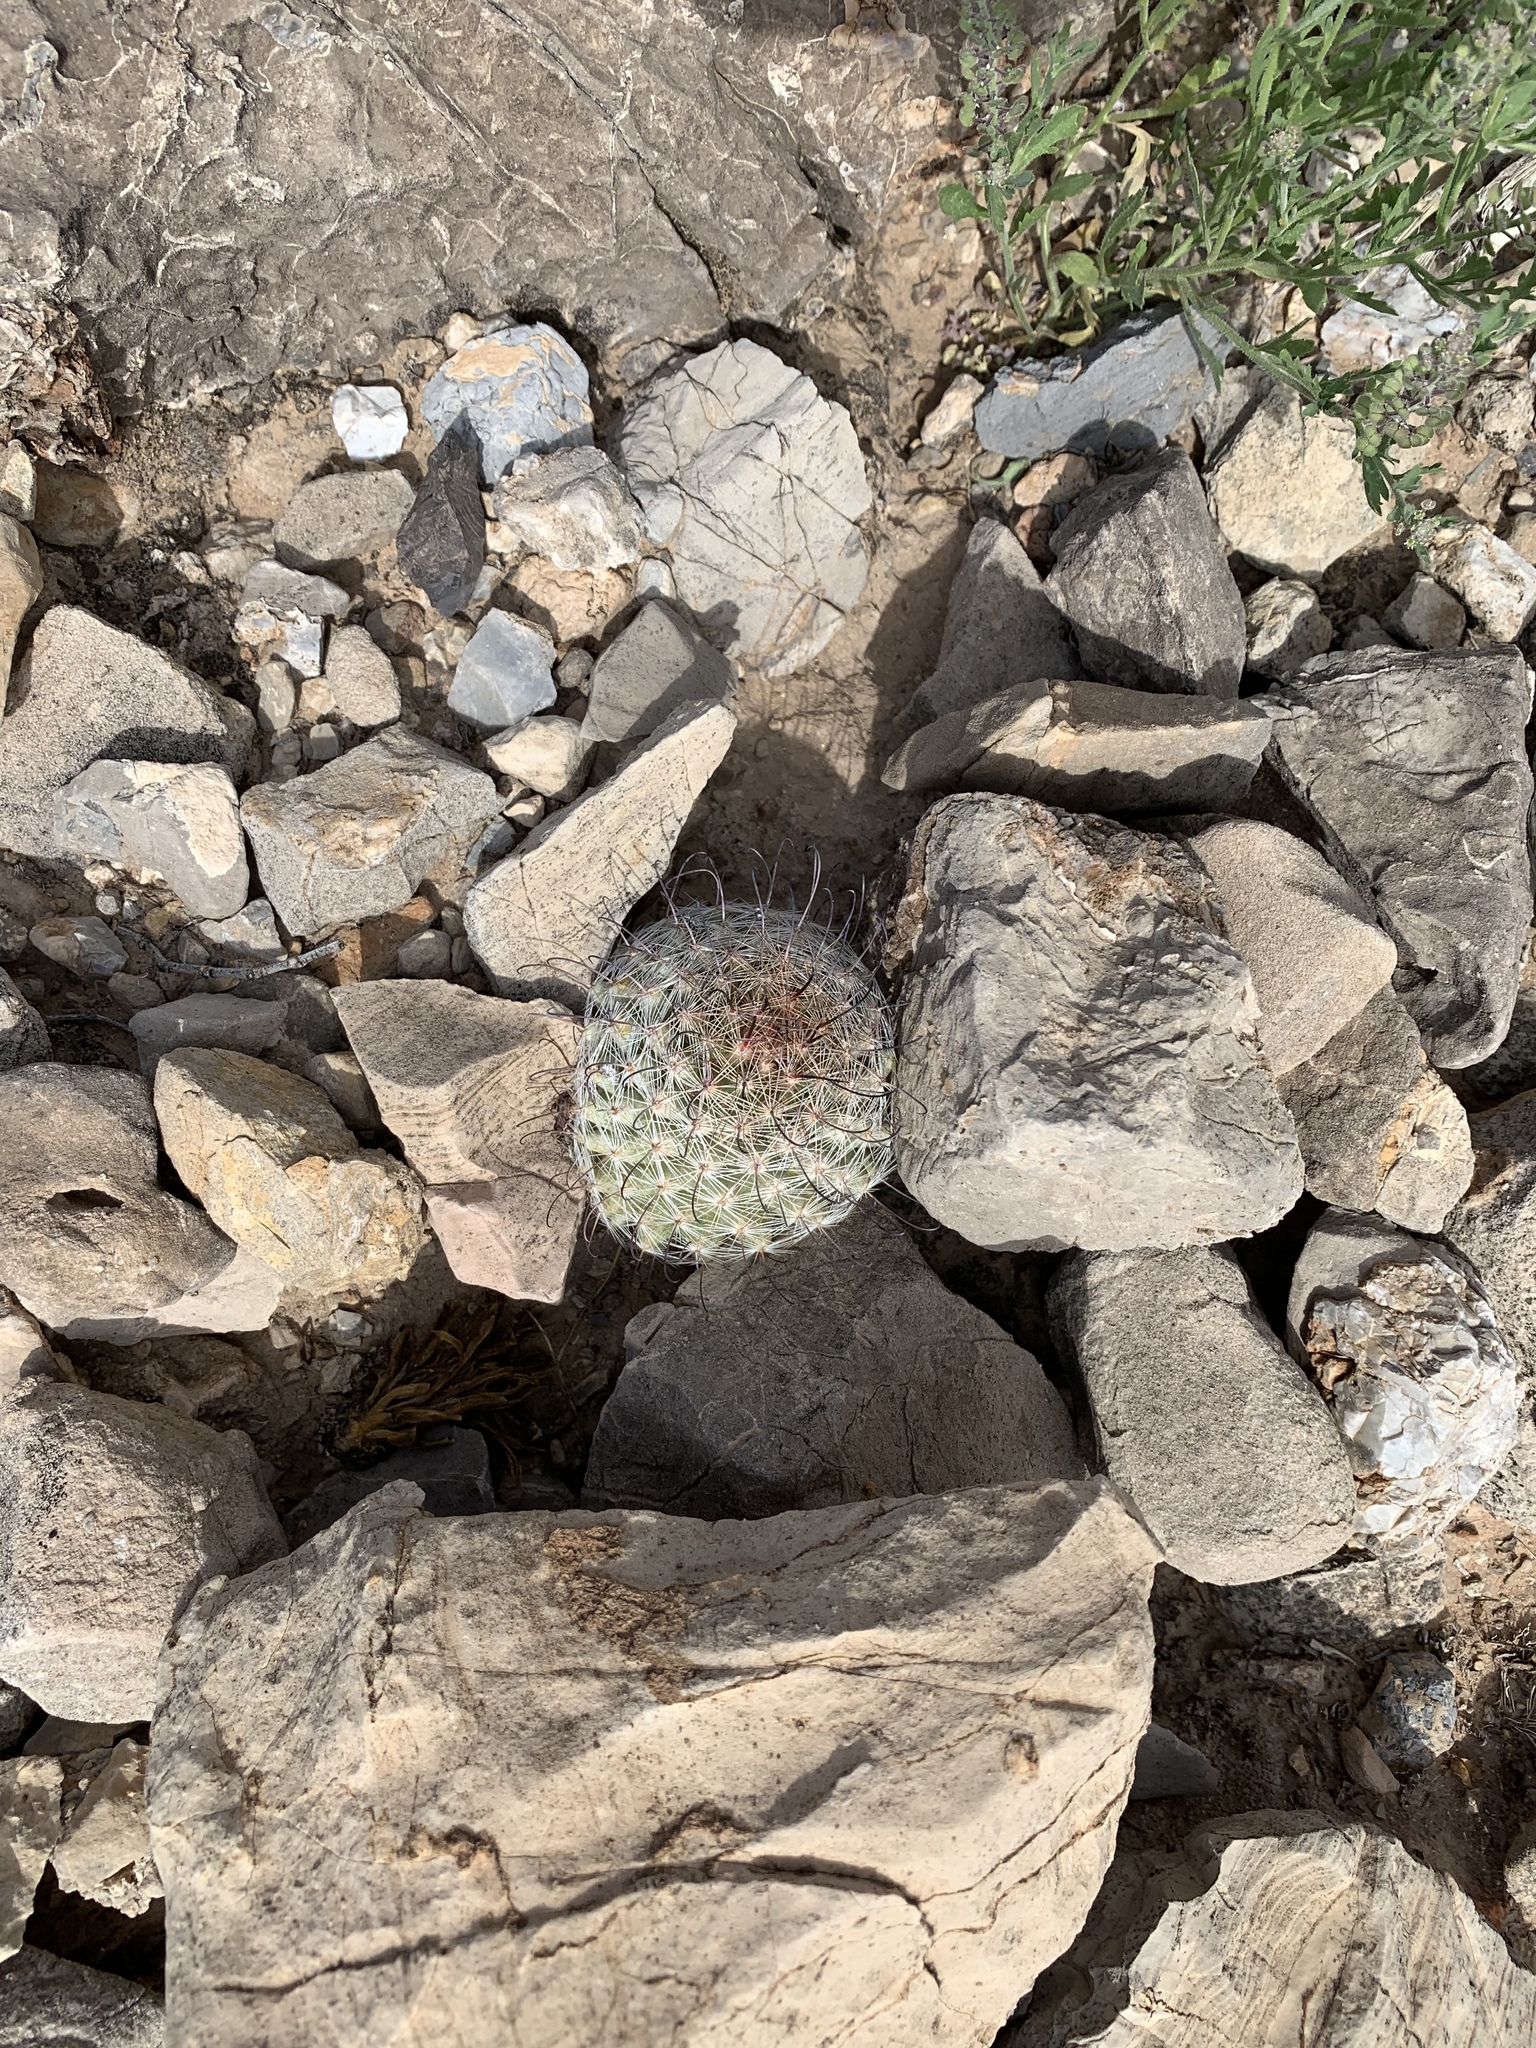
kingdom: Plantae
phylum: Tracheophyta
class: Magnoliopsida
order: Caryophyllales
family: Cactaceae
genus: Cochemiea
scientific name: Cochemiea grahamii
